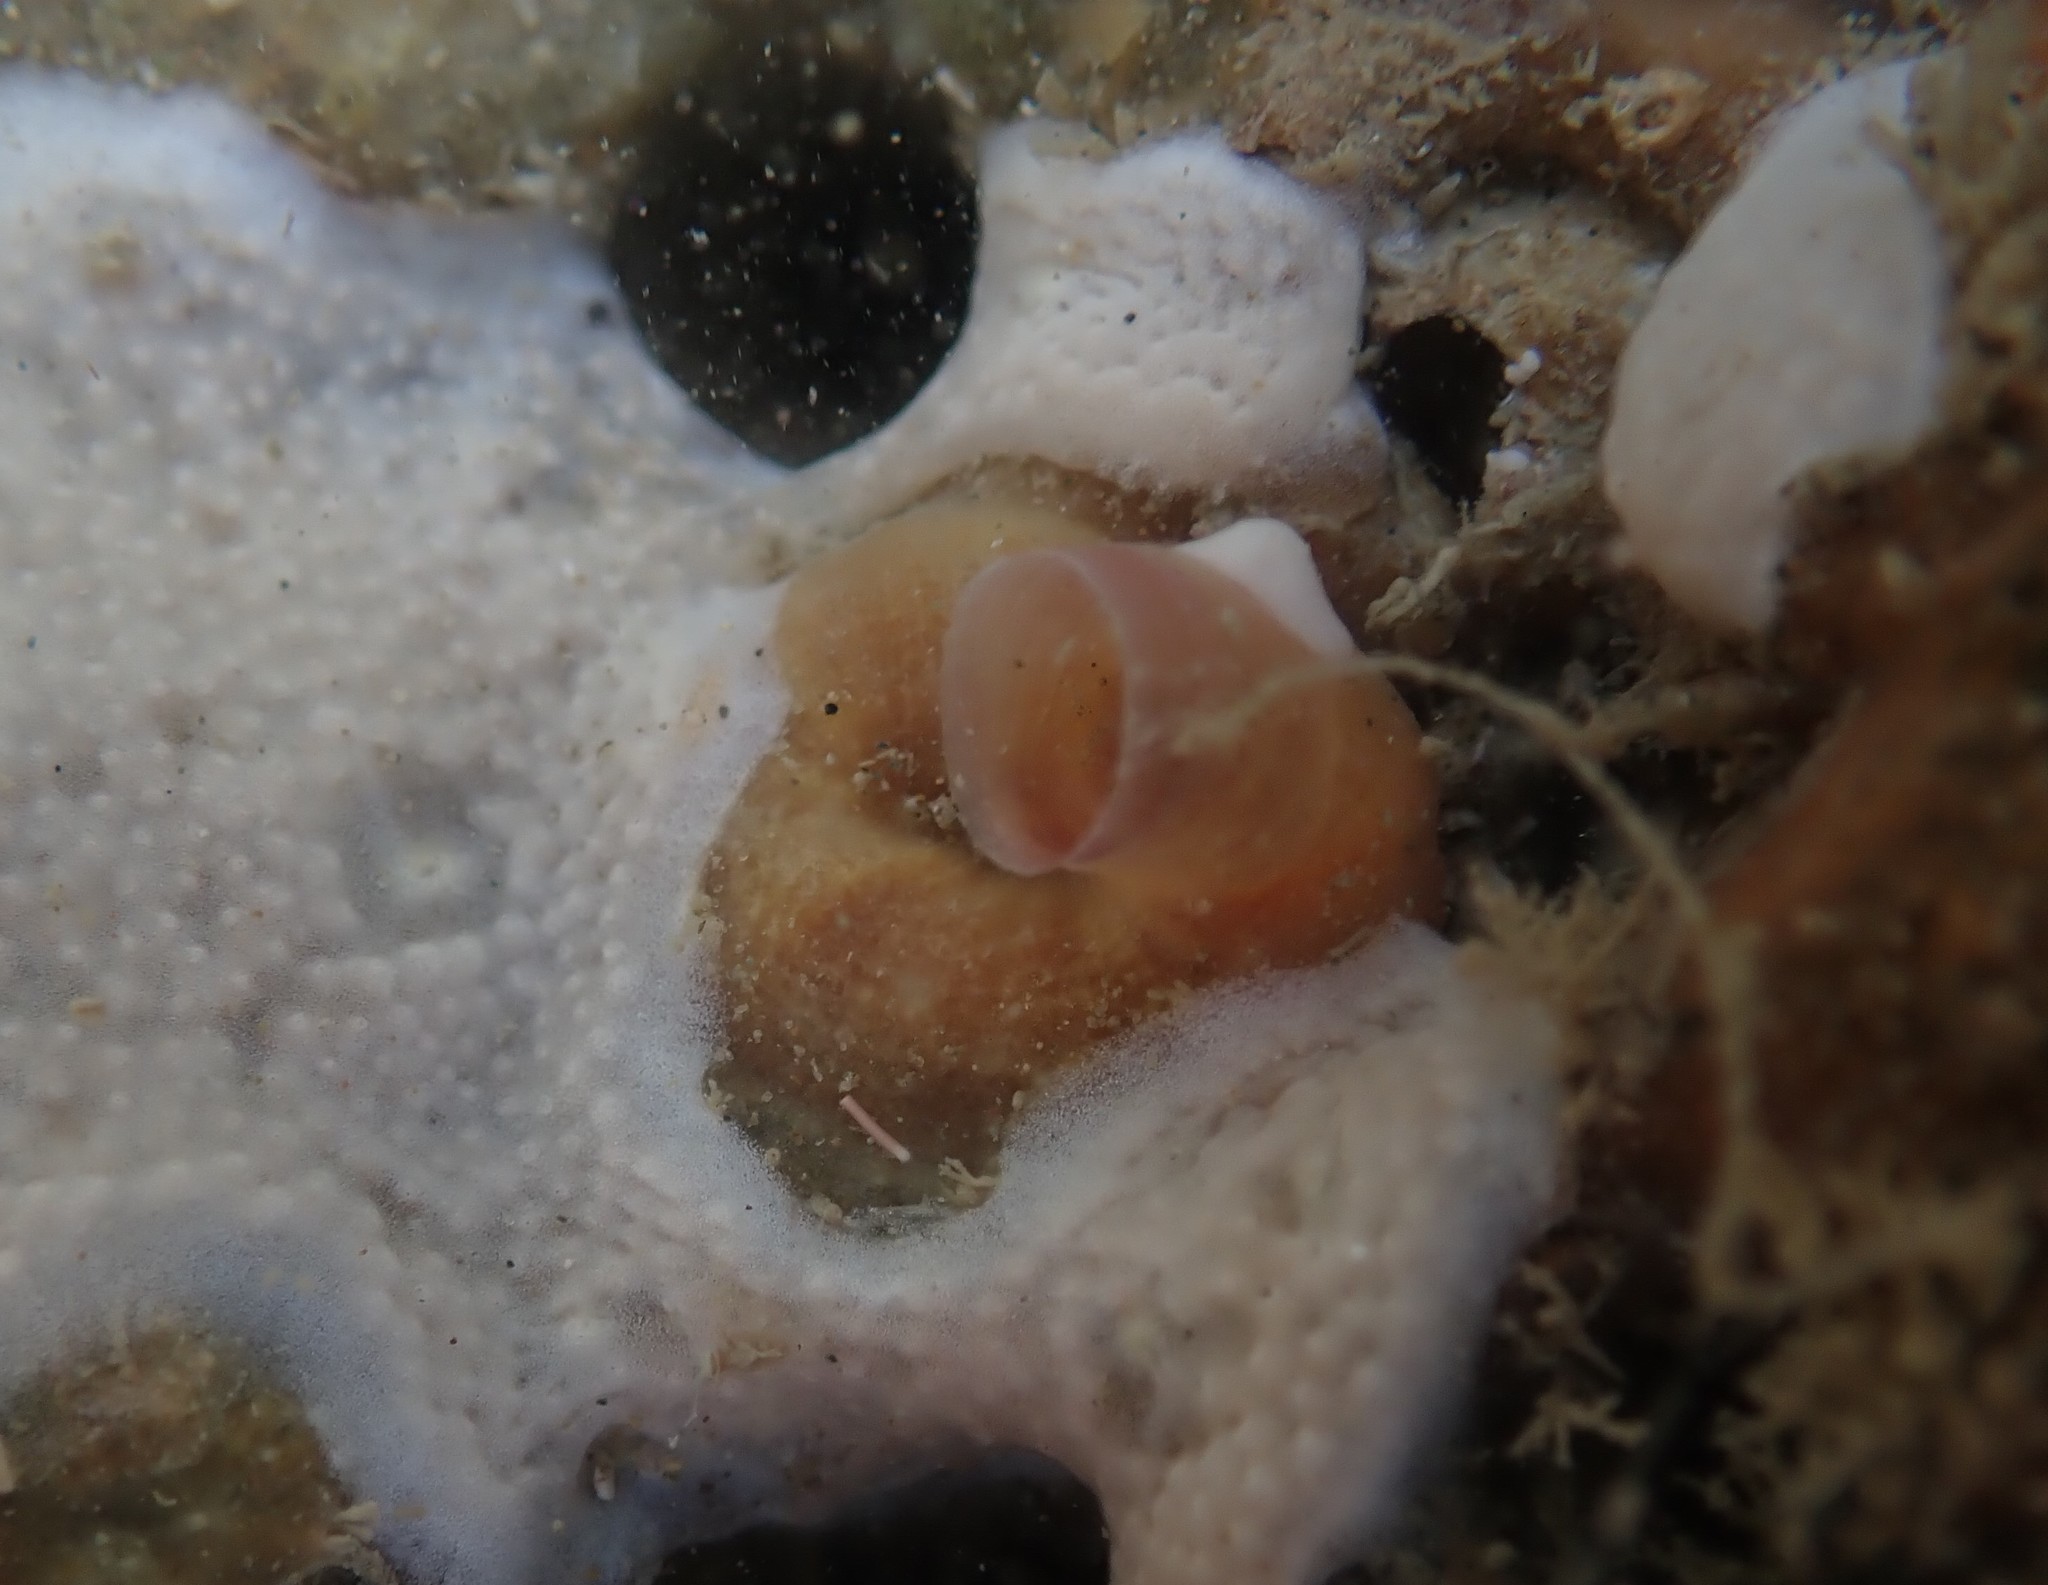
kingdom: Animalia
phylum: Mollusca
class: Gastropoda
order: Littorinimorpha
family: Vermetidae
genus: Thylacodes
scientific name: Thylacodes zelandicus
